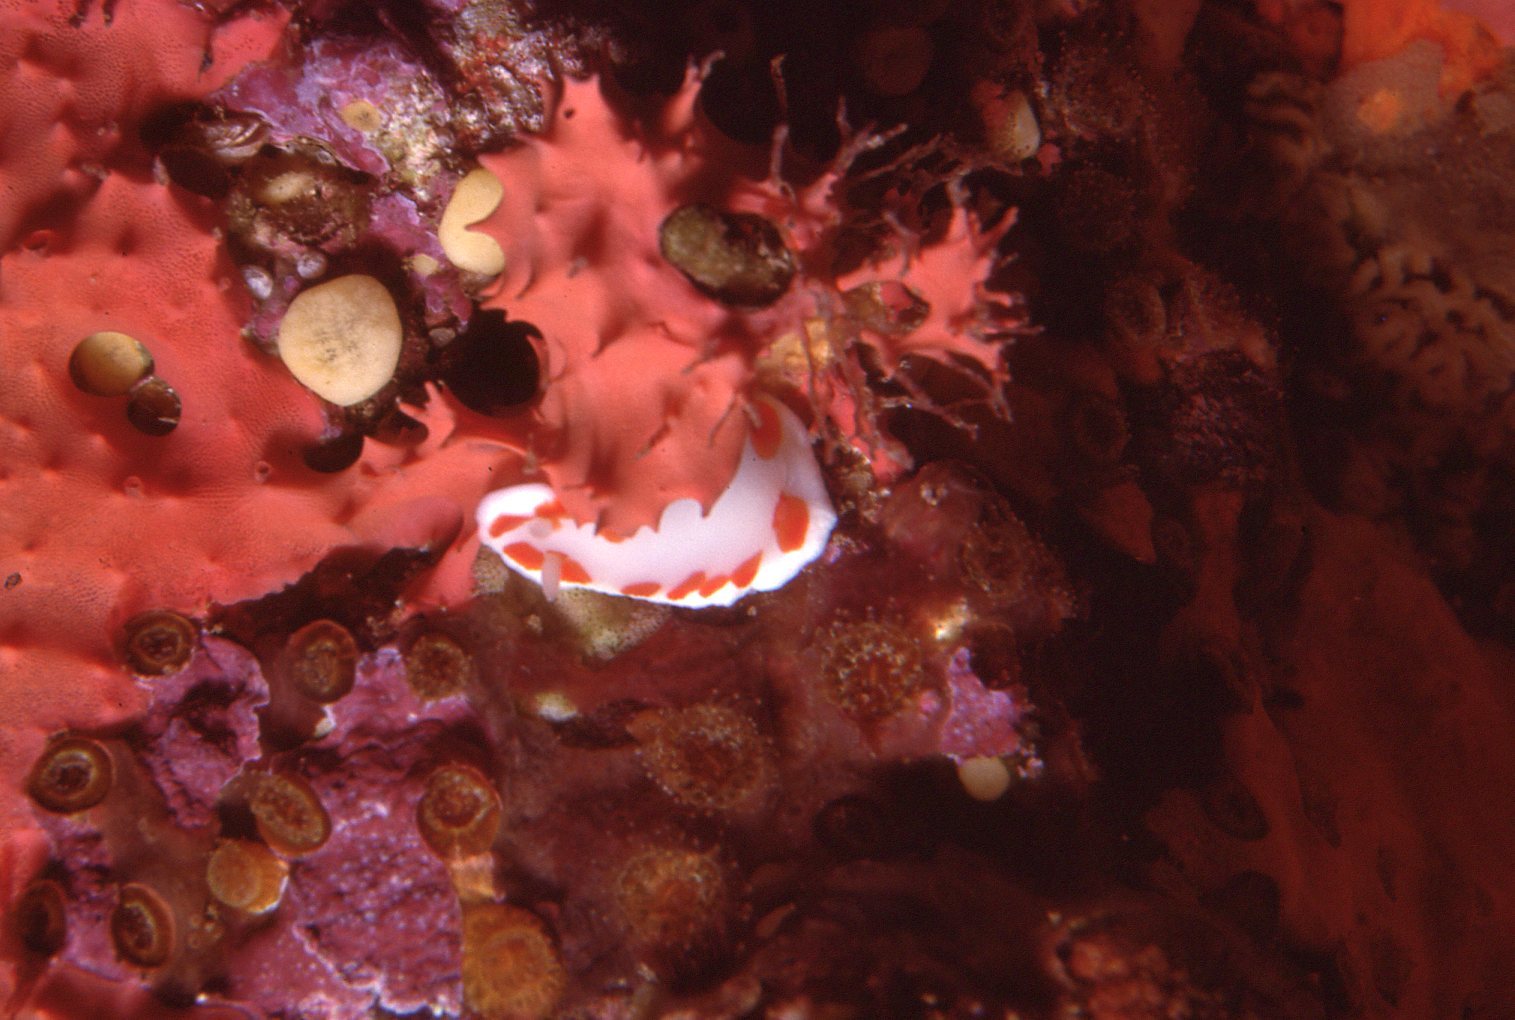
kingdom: Animalia
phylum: Mollusca
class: Gastropoda
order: Nudibranchia
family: Chromodorididae
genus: Goniobranchus
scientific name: Goniobranchus tasmaniensis
